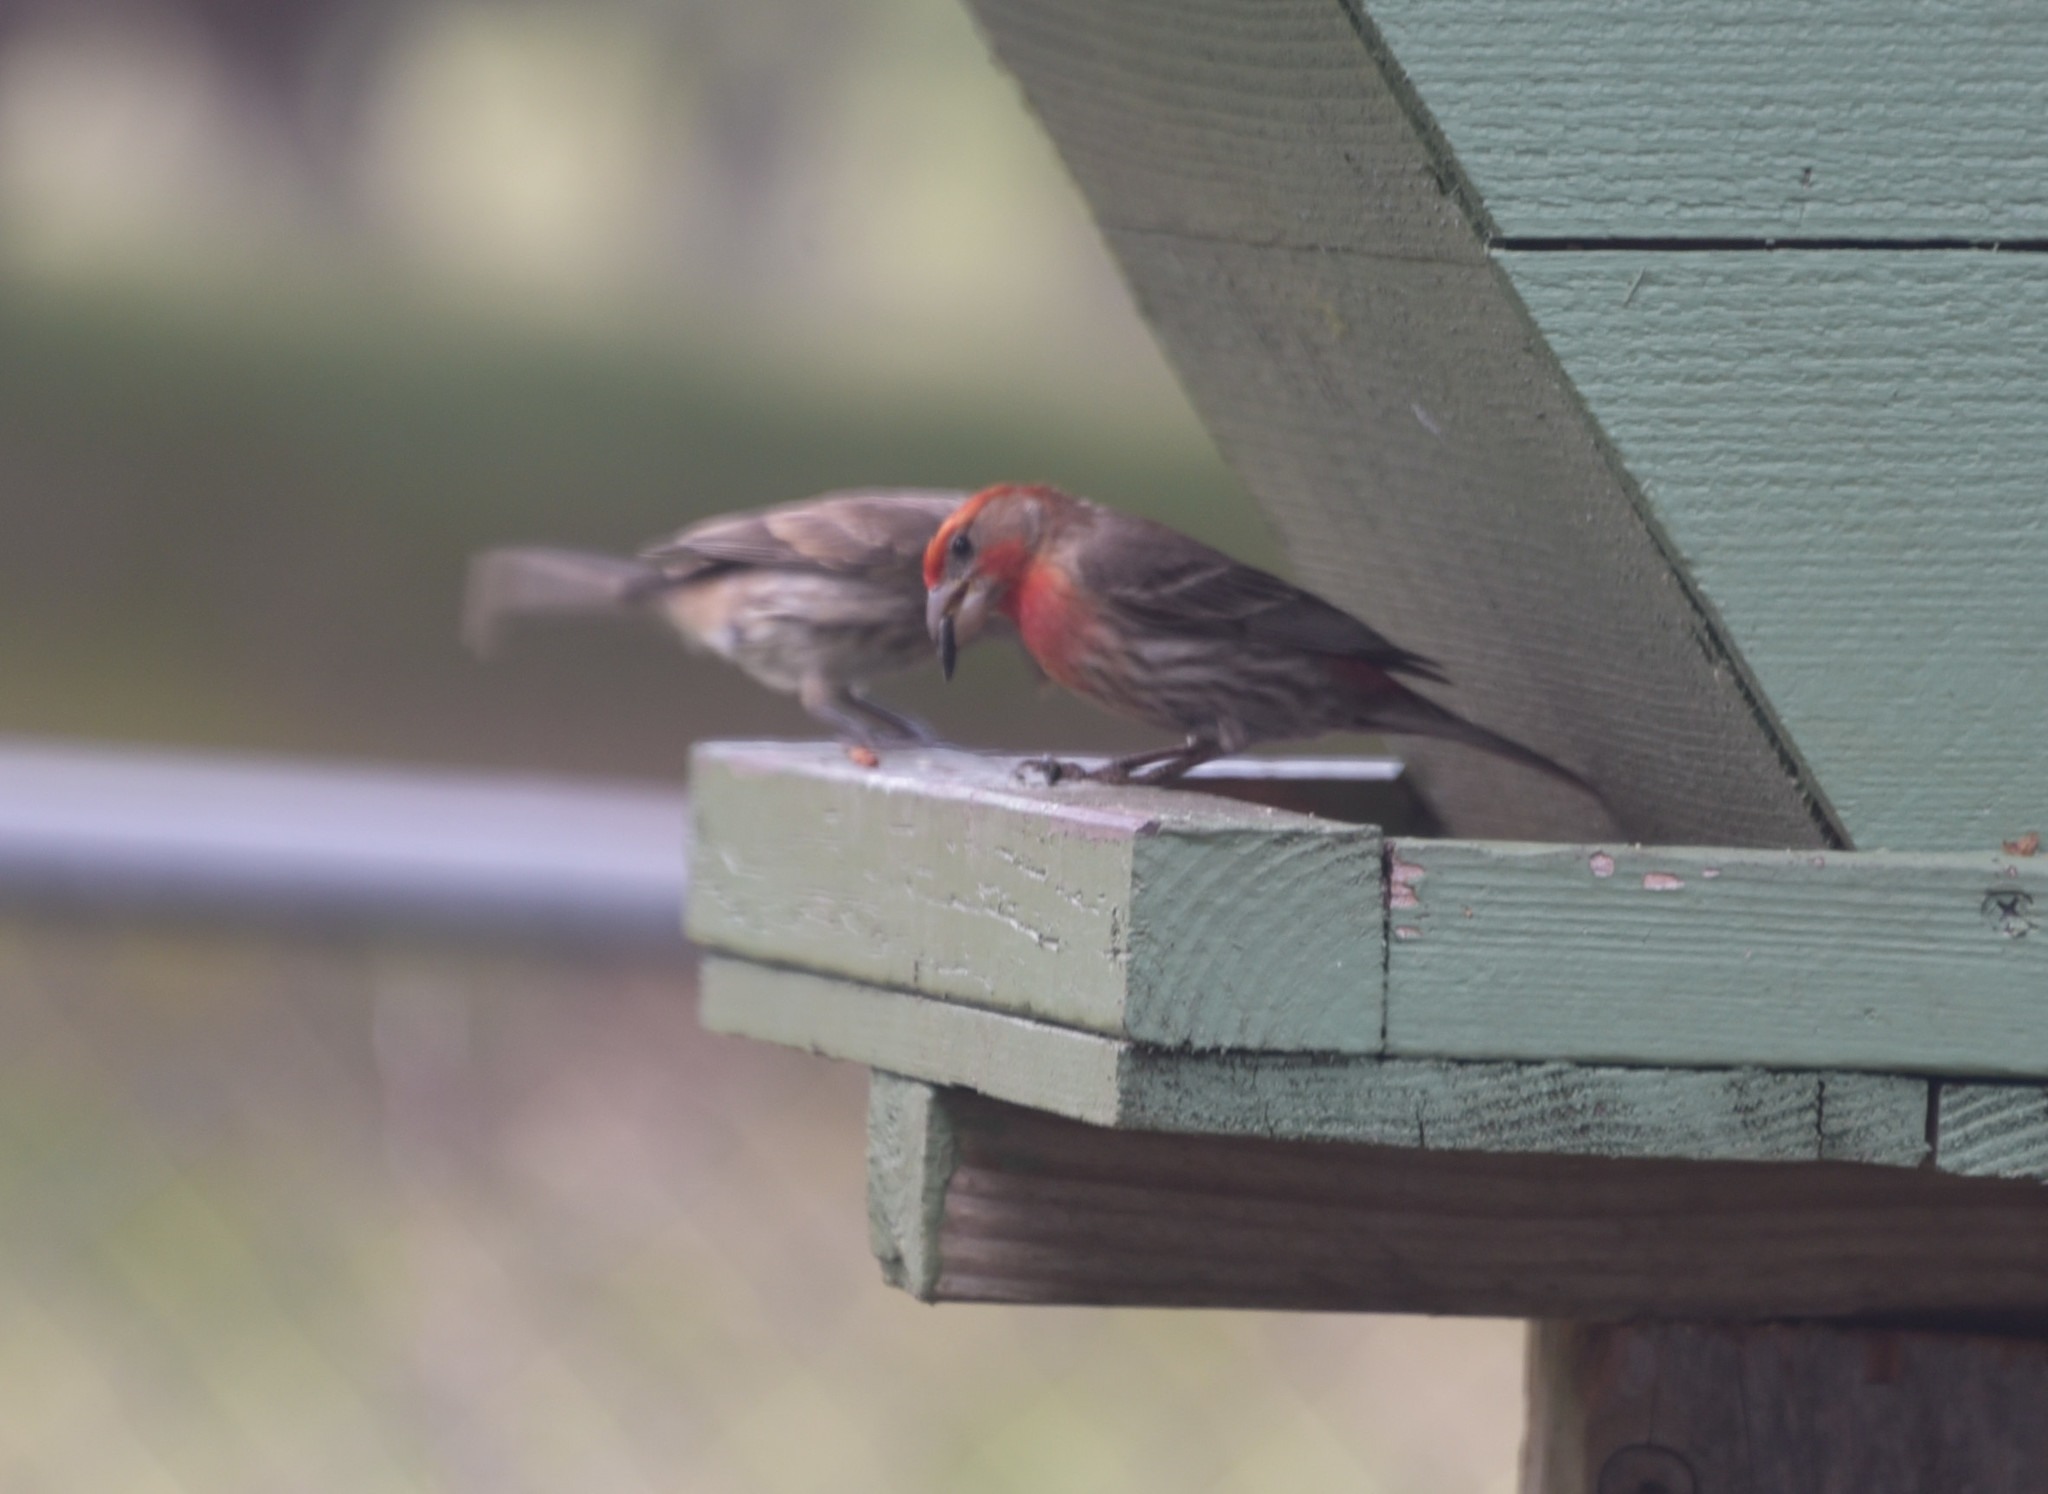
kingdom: Animalia
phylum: Chordata
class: Aves
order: Passeriformes
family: Fringillidae
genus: Haemorhous
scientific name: Haemorhous mexicanus
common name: House finch
